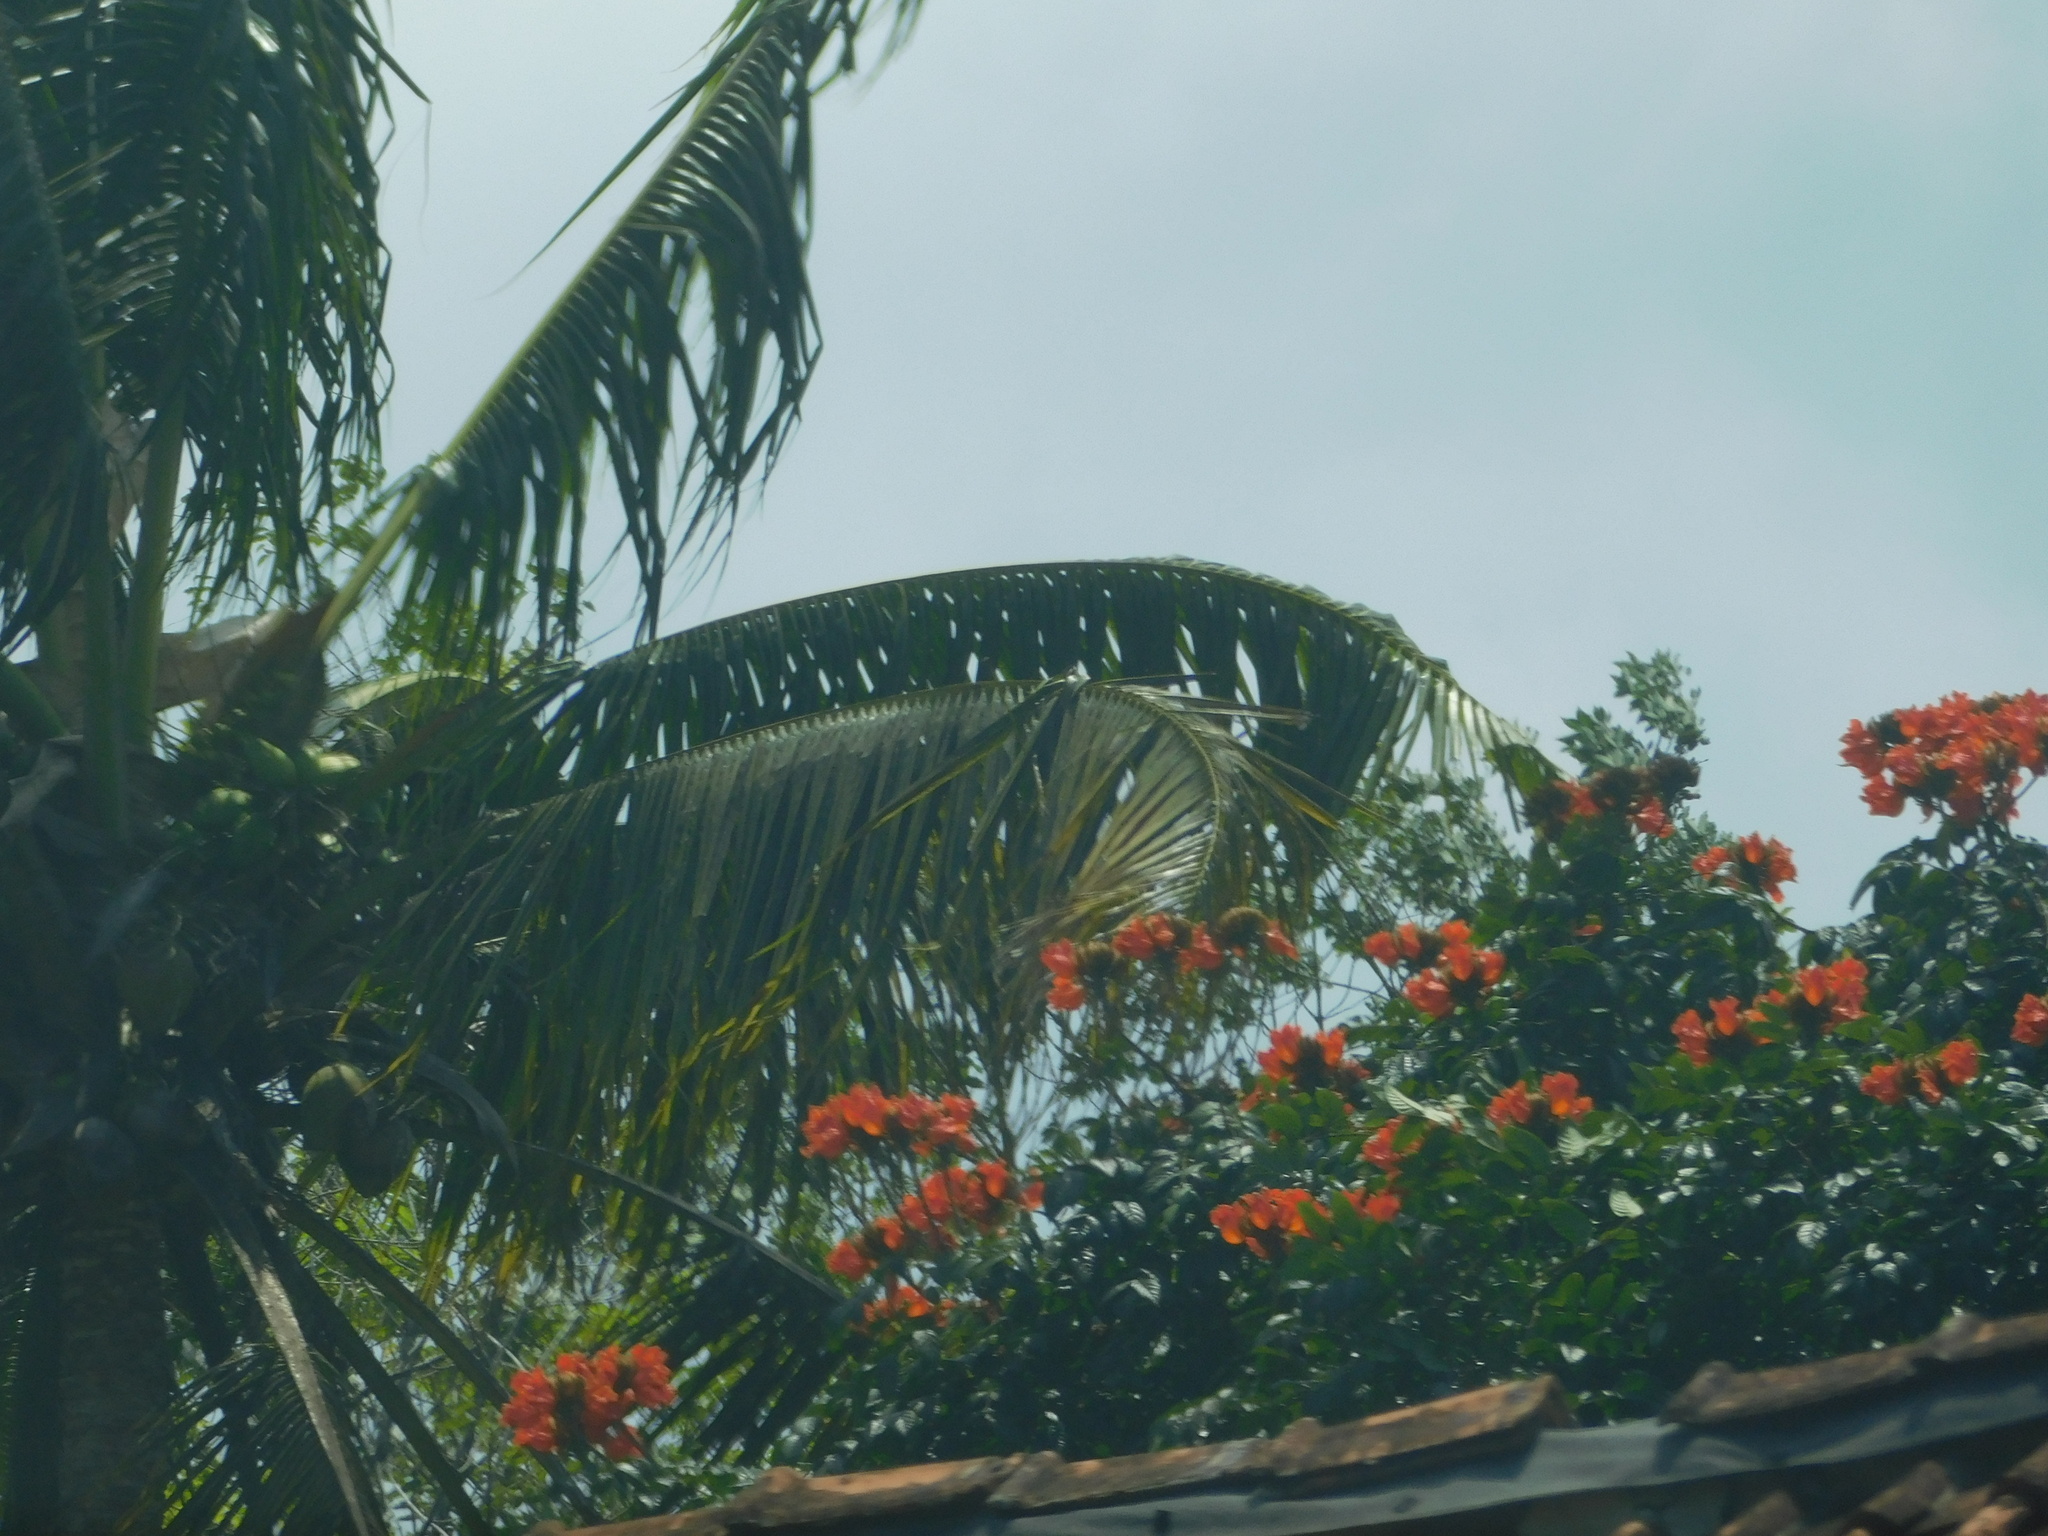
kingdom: Plantae
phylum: Tracheophyta
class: Magnoliopsida
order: Lamiales
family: Bignoniaceae
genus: Spathodea
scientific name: Spathodea campanulata
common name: African tuliptree
